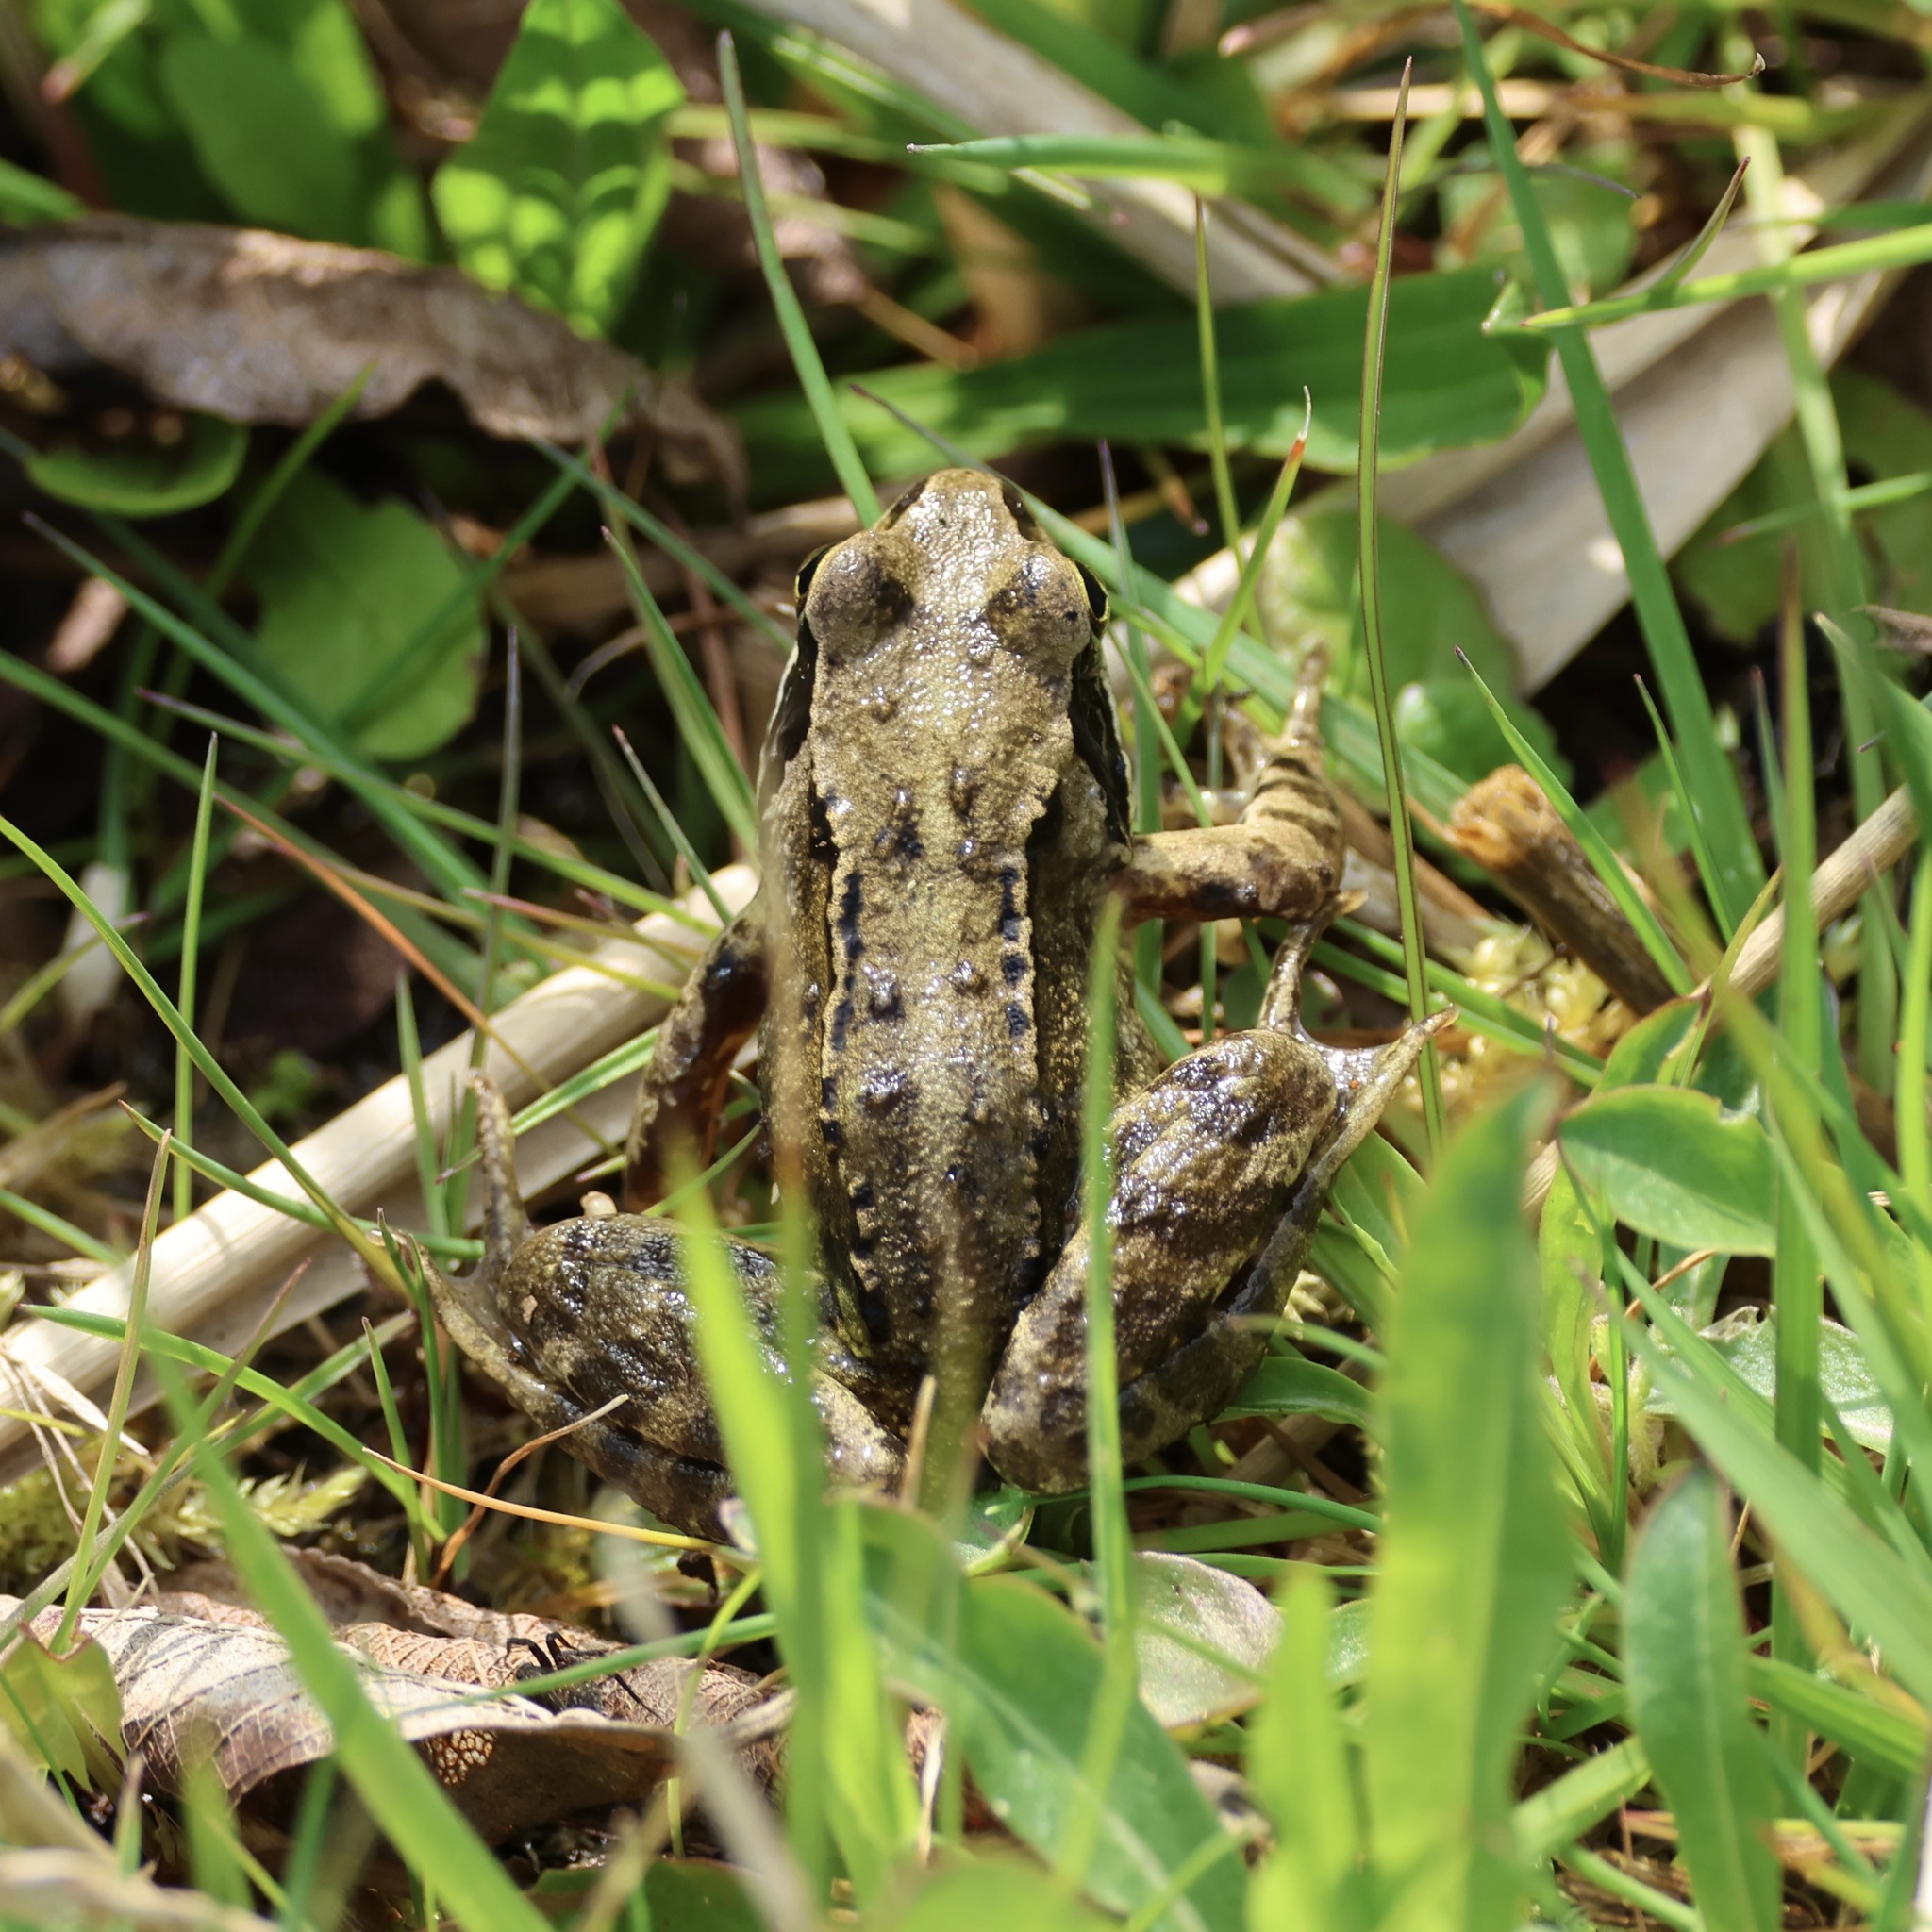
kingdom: Animalia
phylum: Chordata
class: Amphibia
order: Anura
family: Ranidae
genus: Rana
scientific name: Rana temporaria
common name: Common frog
